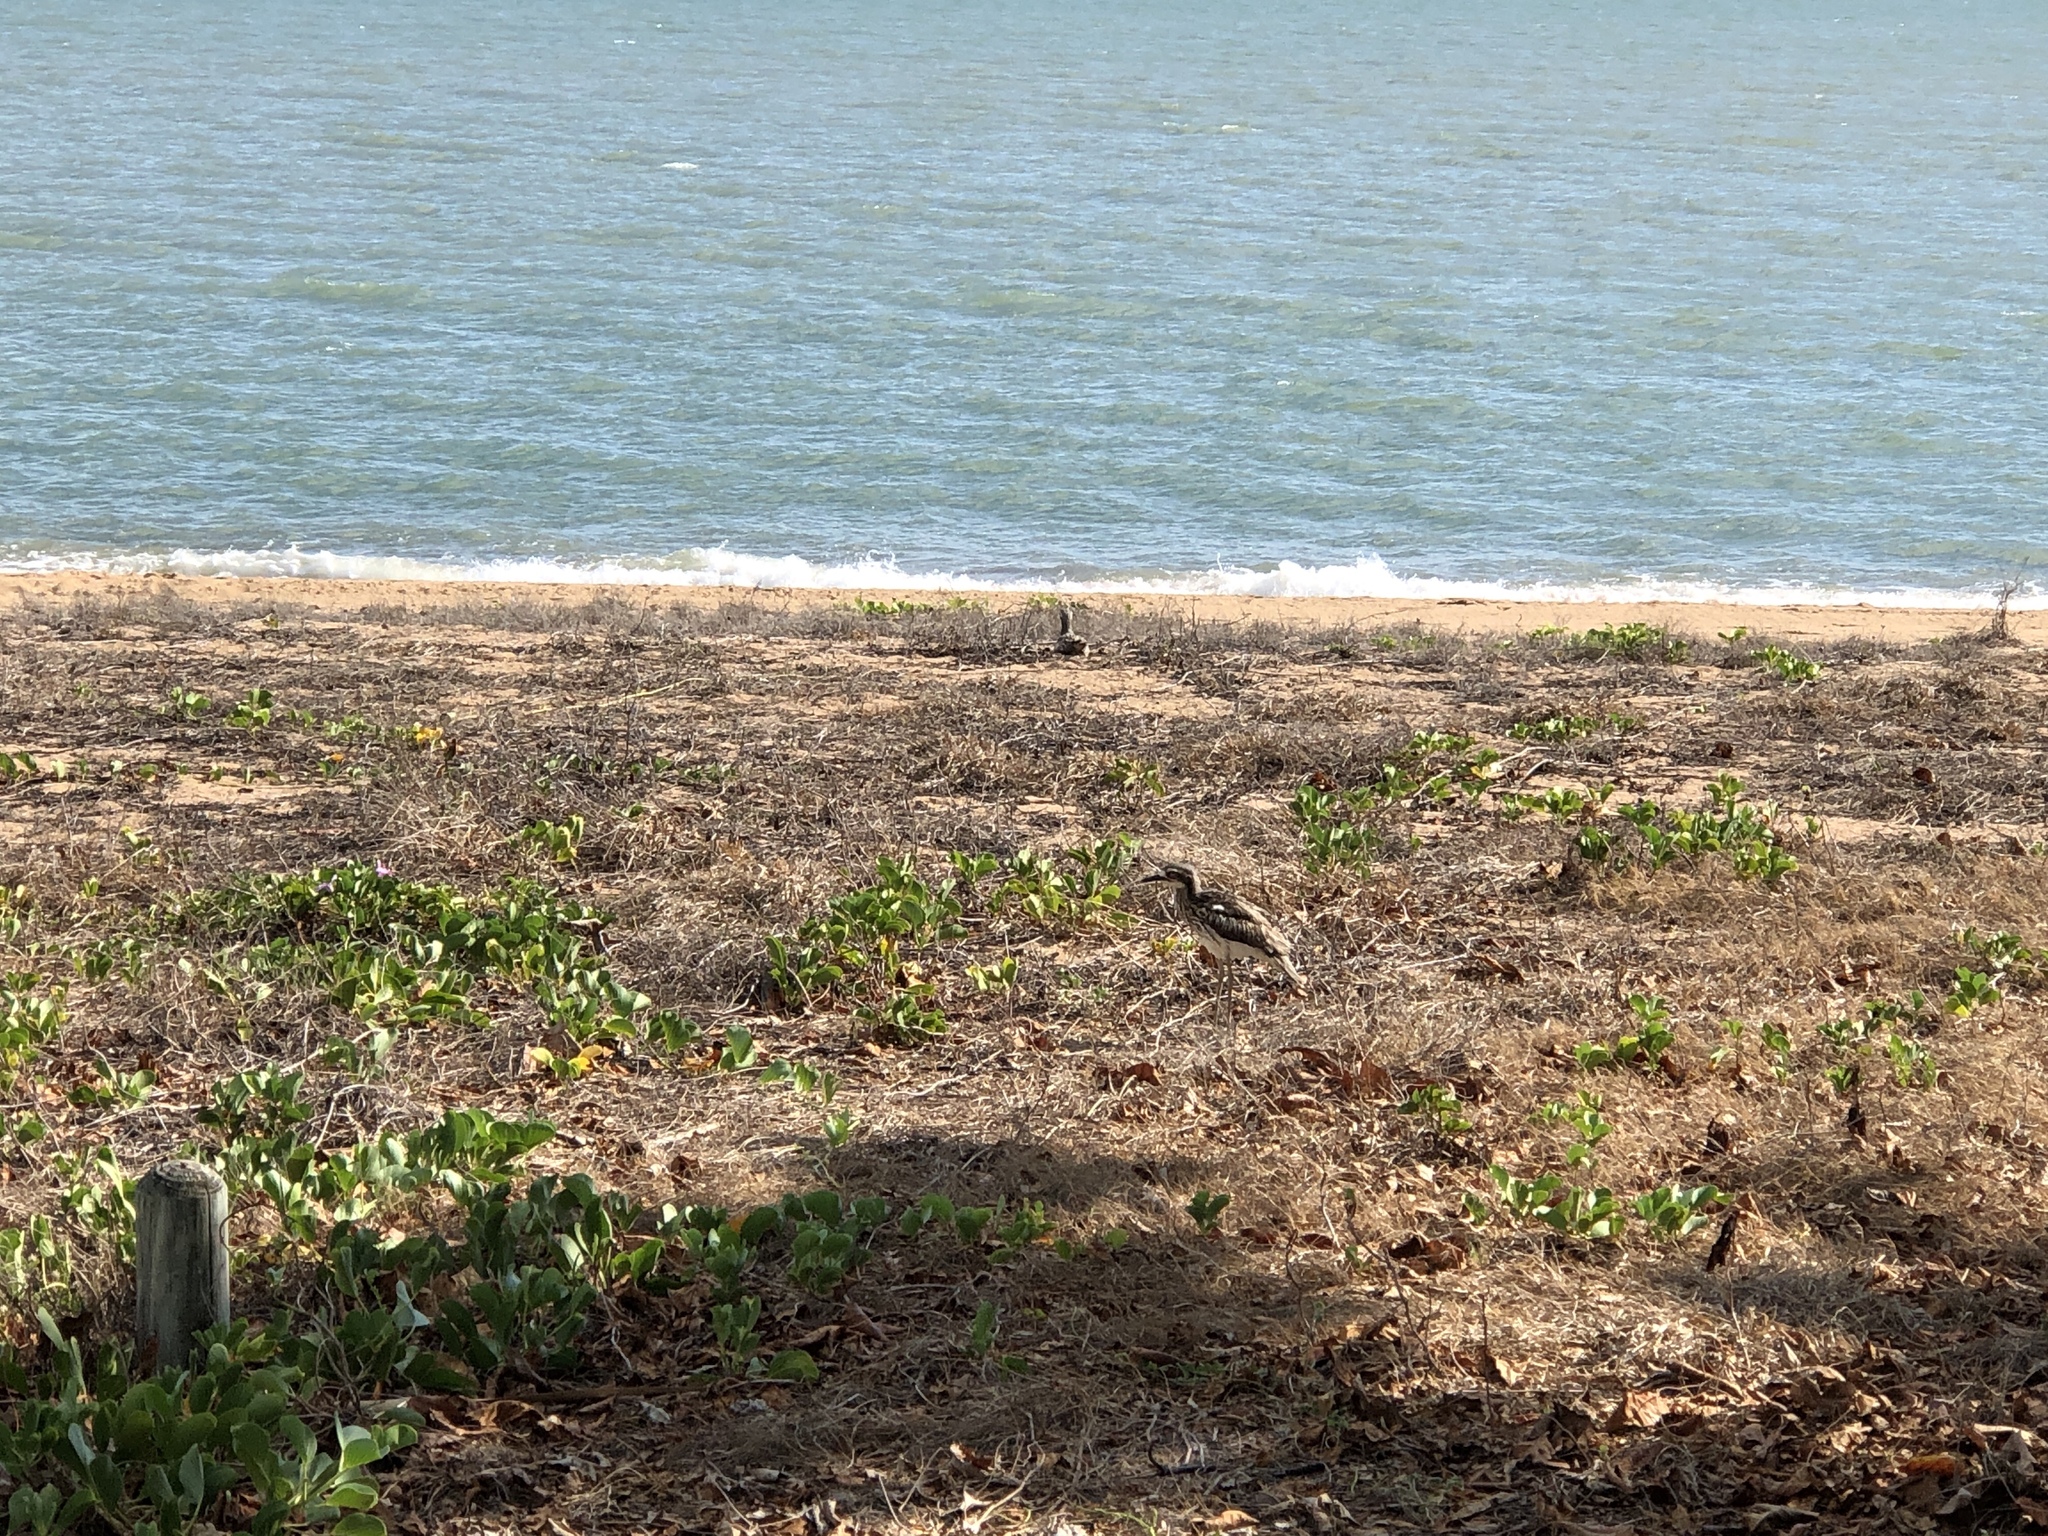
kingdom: Animalia
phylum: Chordata
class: Aves
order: Charadriiformes
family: Burhinidae
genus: Burhinus
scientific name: Burhinus grallarius
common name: Bush stone-curlew
